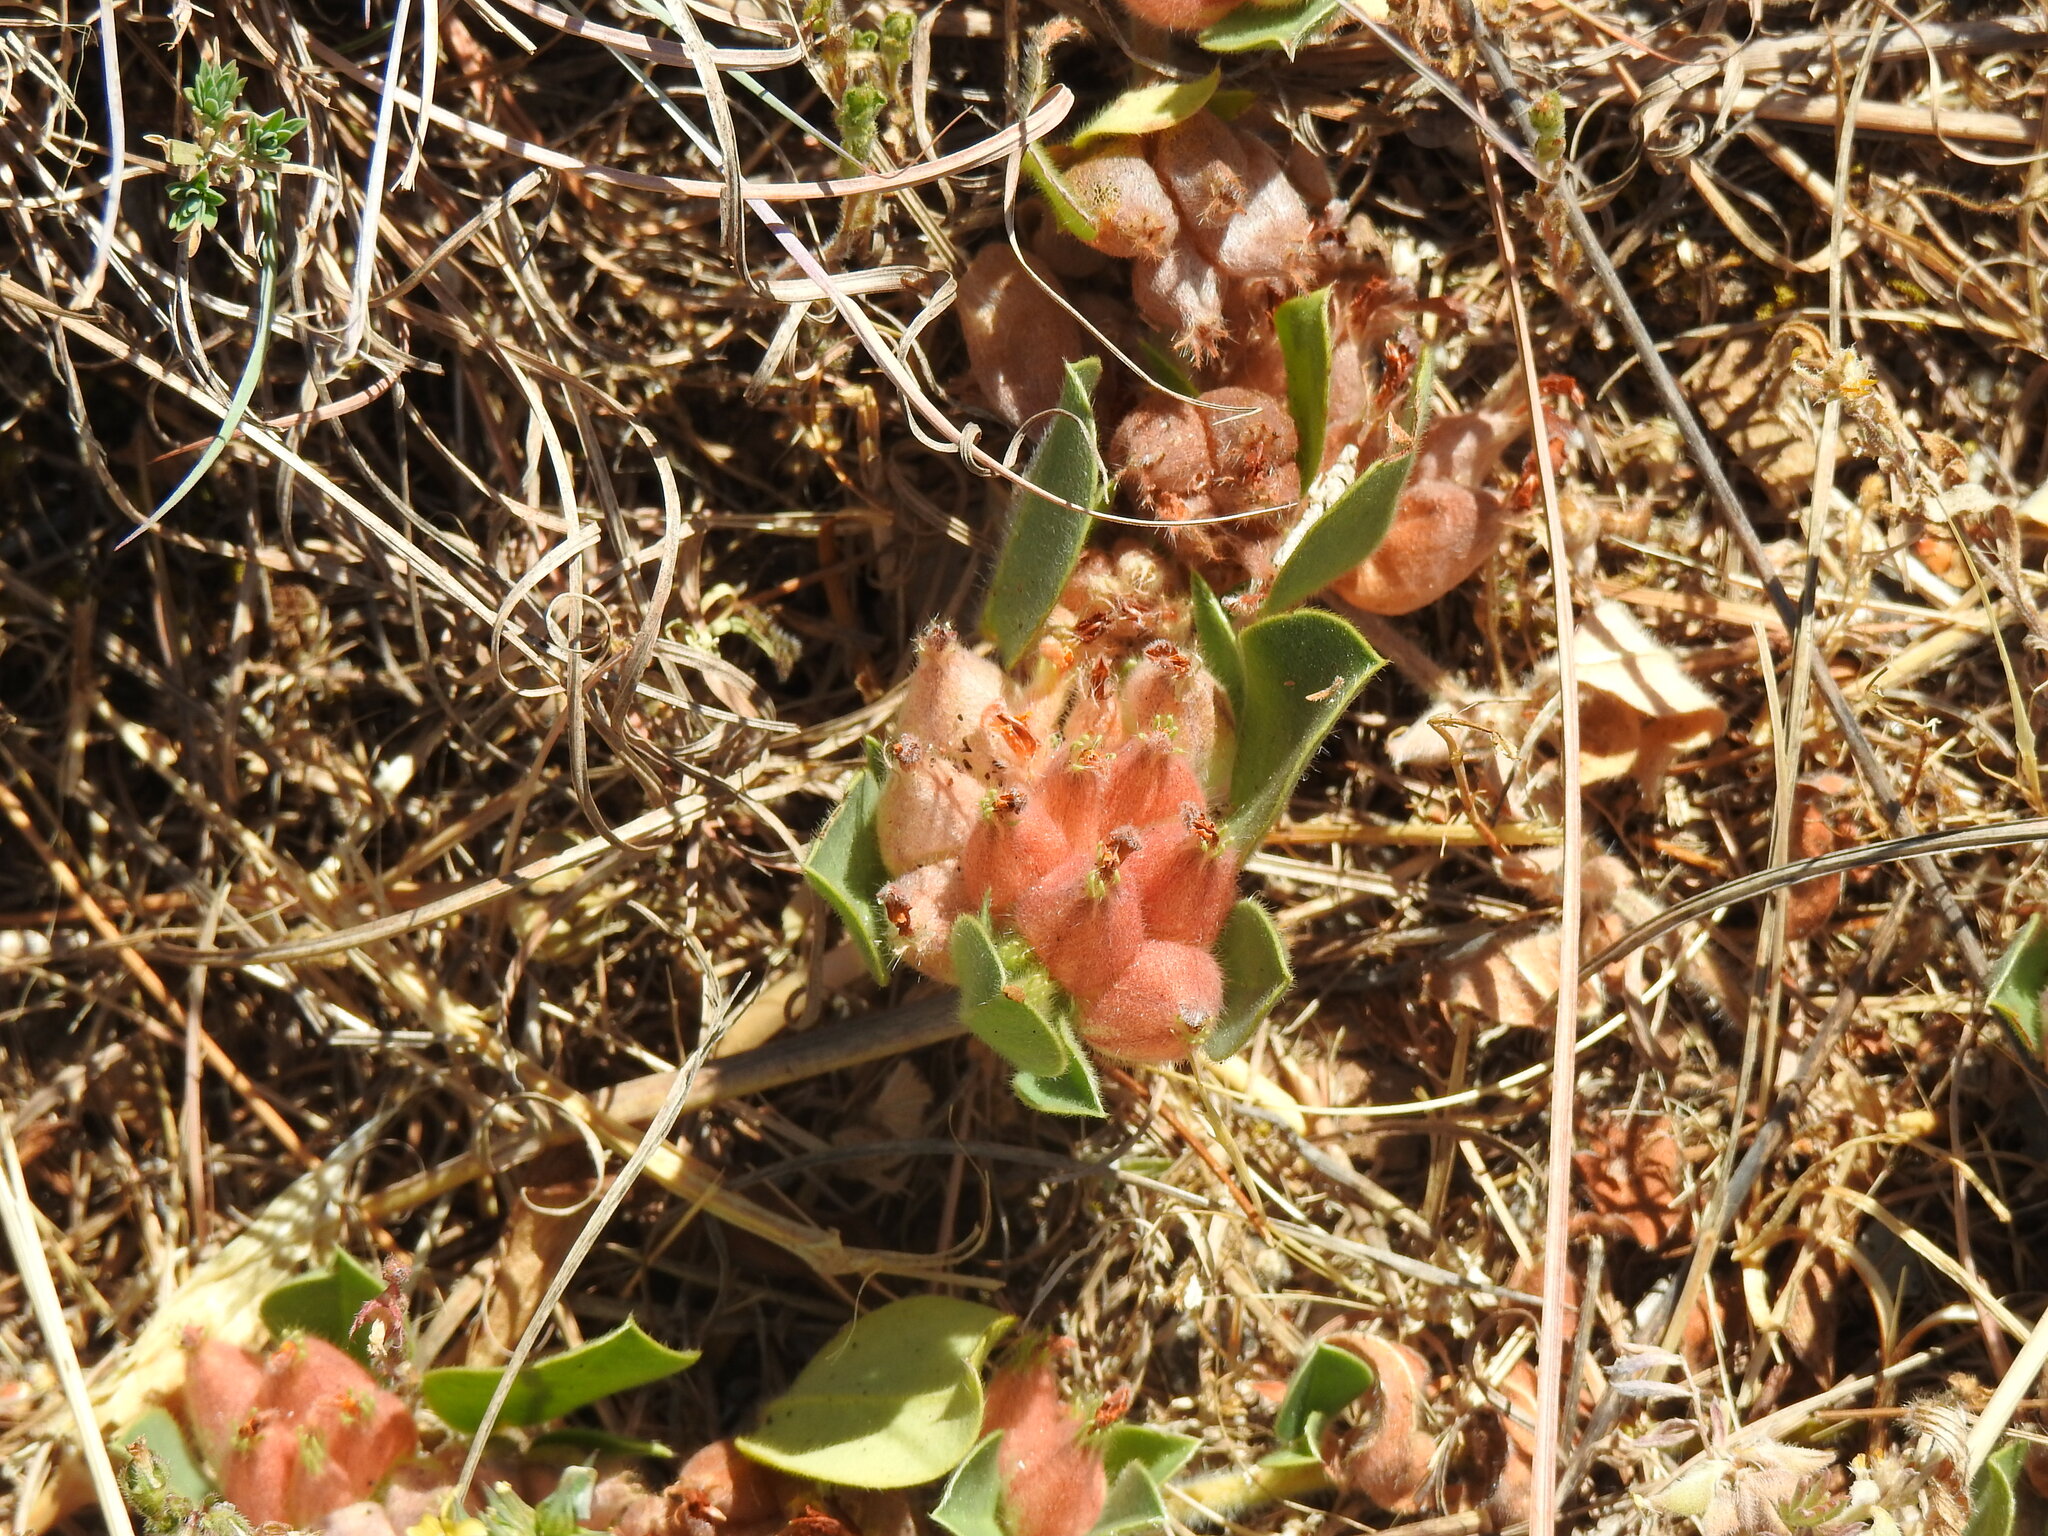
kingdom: Plantae
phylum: Tracheophyta
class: Magnoliopsida
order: Fabales
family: Fabaceae
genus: Tripodion
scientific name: Tripodion tetraphyllum
